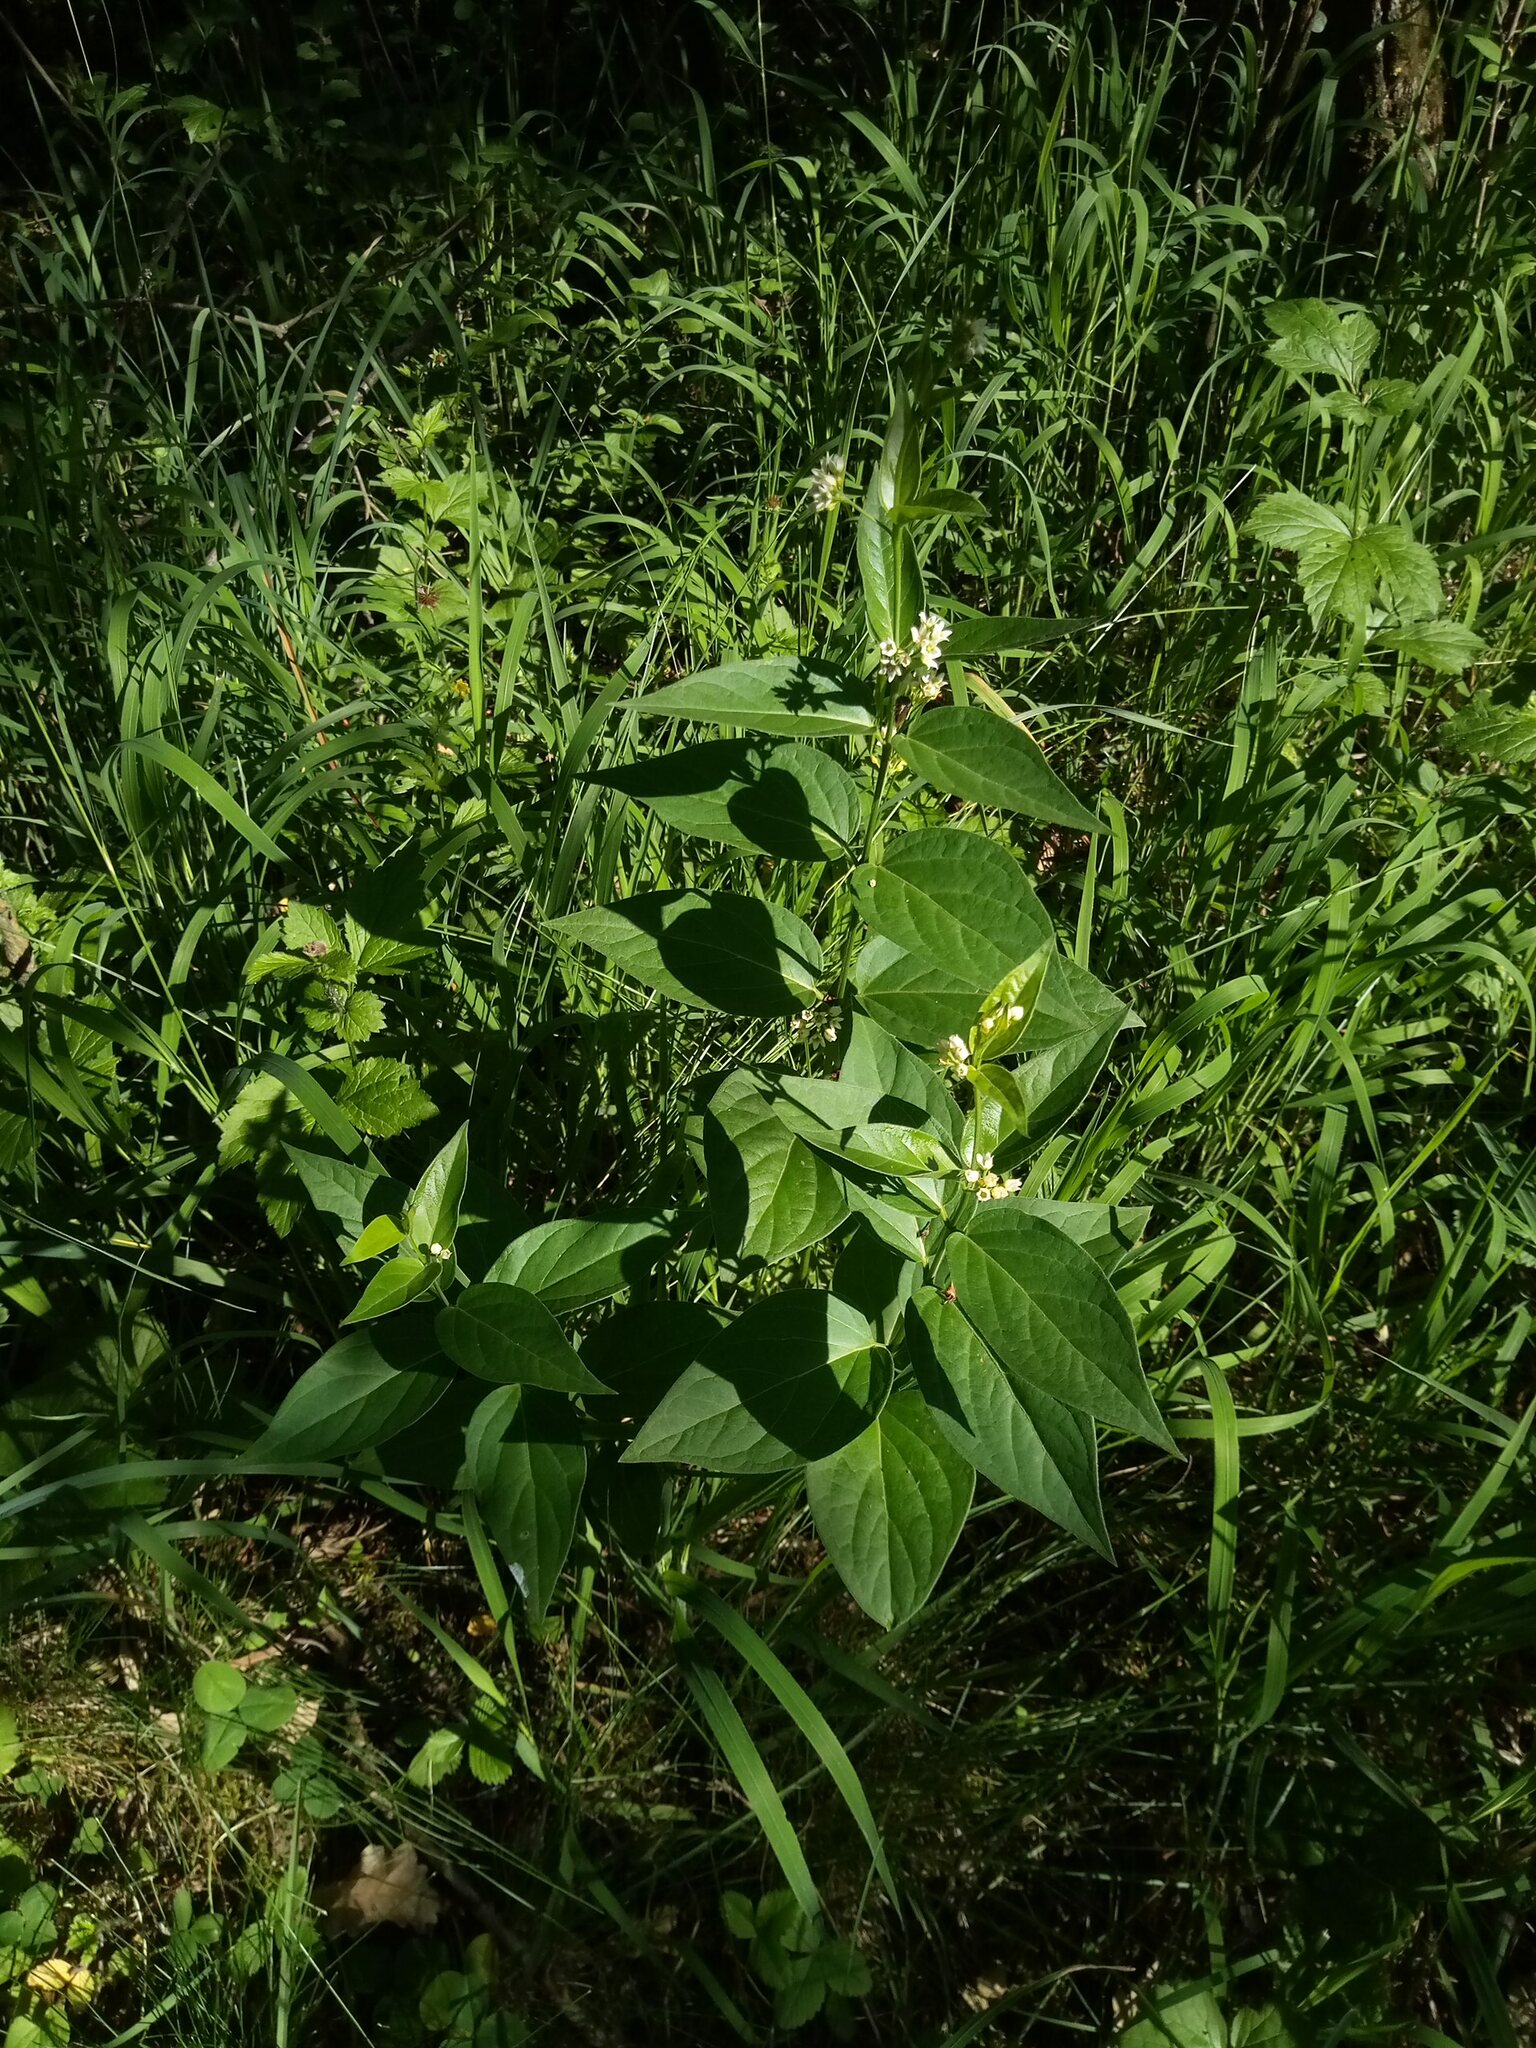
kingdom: Plantae
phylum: Tracheophyta
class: Magnoliopsida
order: Gentianales
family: Apocynaceae
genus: Vincetoxicum
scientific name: Vincetoxicum hirundinaria
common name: White swallowwort
